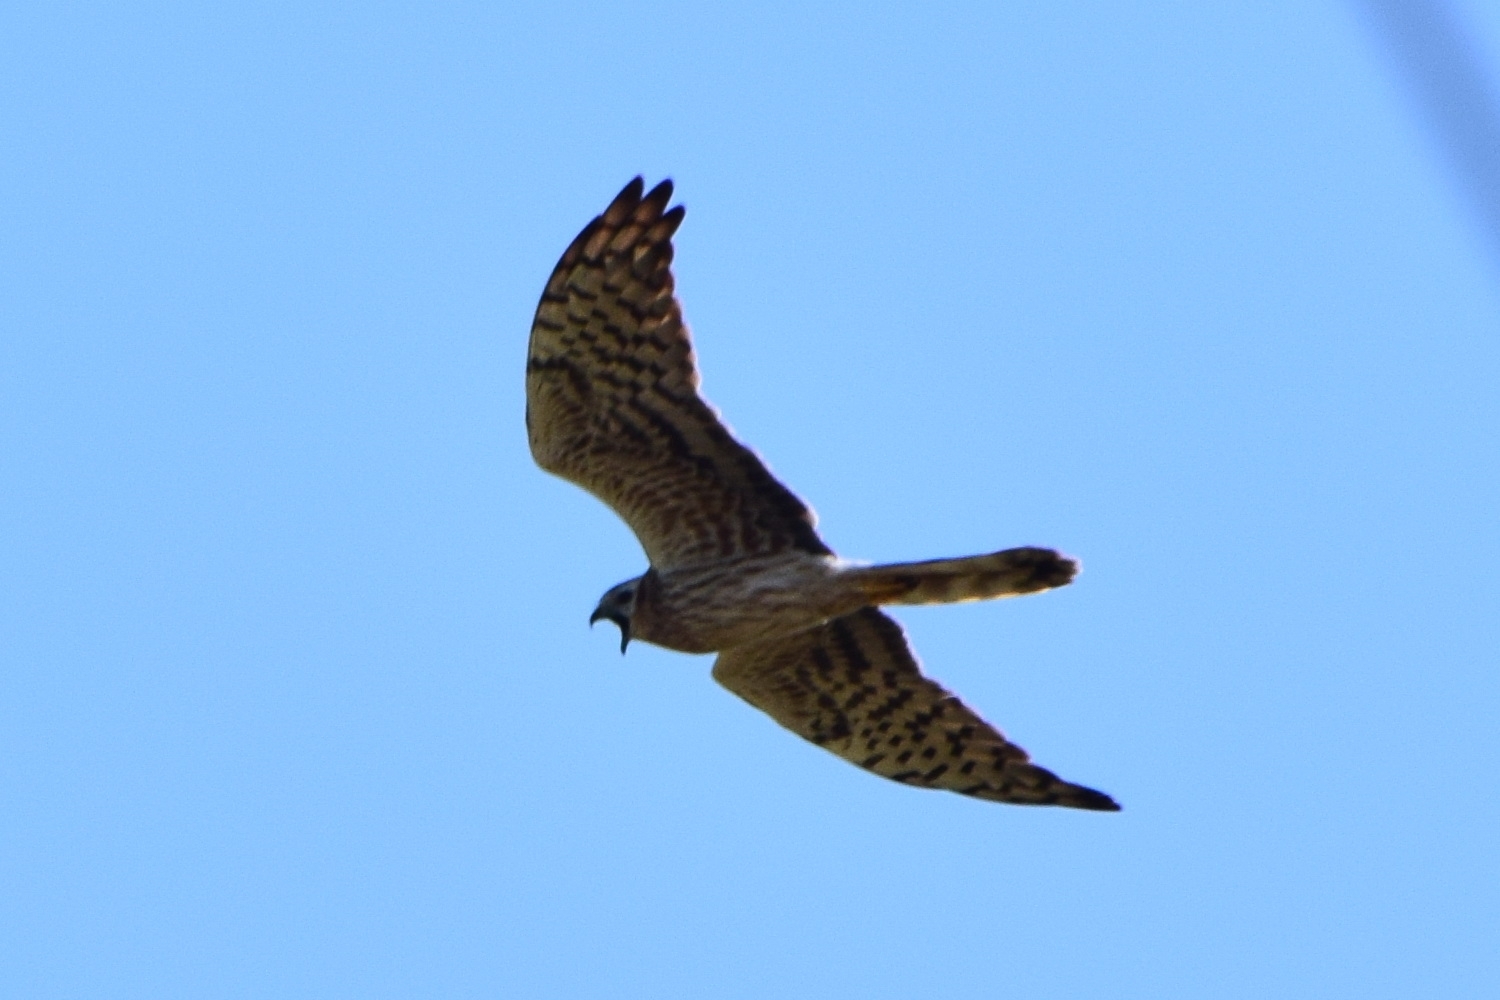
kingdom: Animalia
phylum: Chordata
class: Aves
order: Accipitriformes
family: Accipitridae
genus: Circus
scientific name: Circus pygargus
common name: Montagu's harrier
